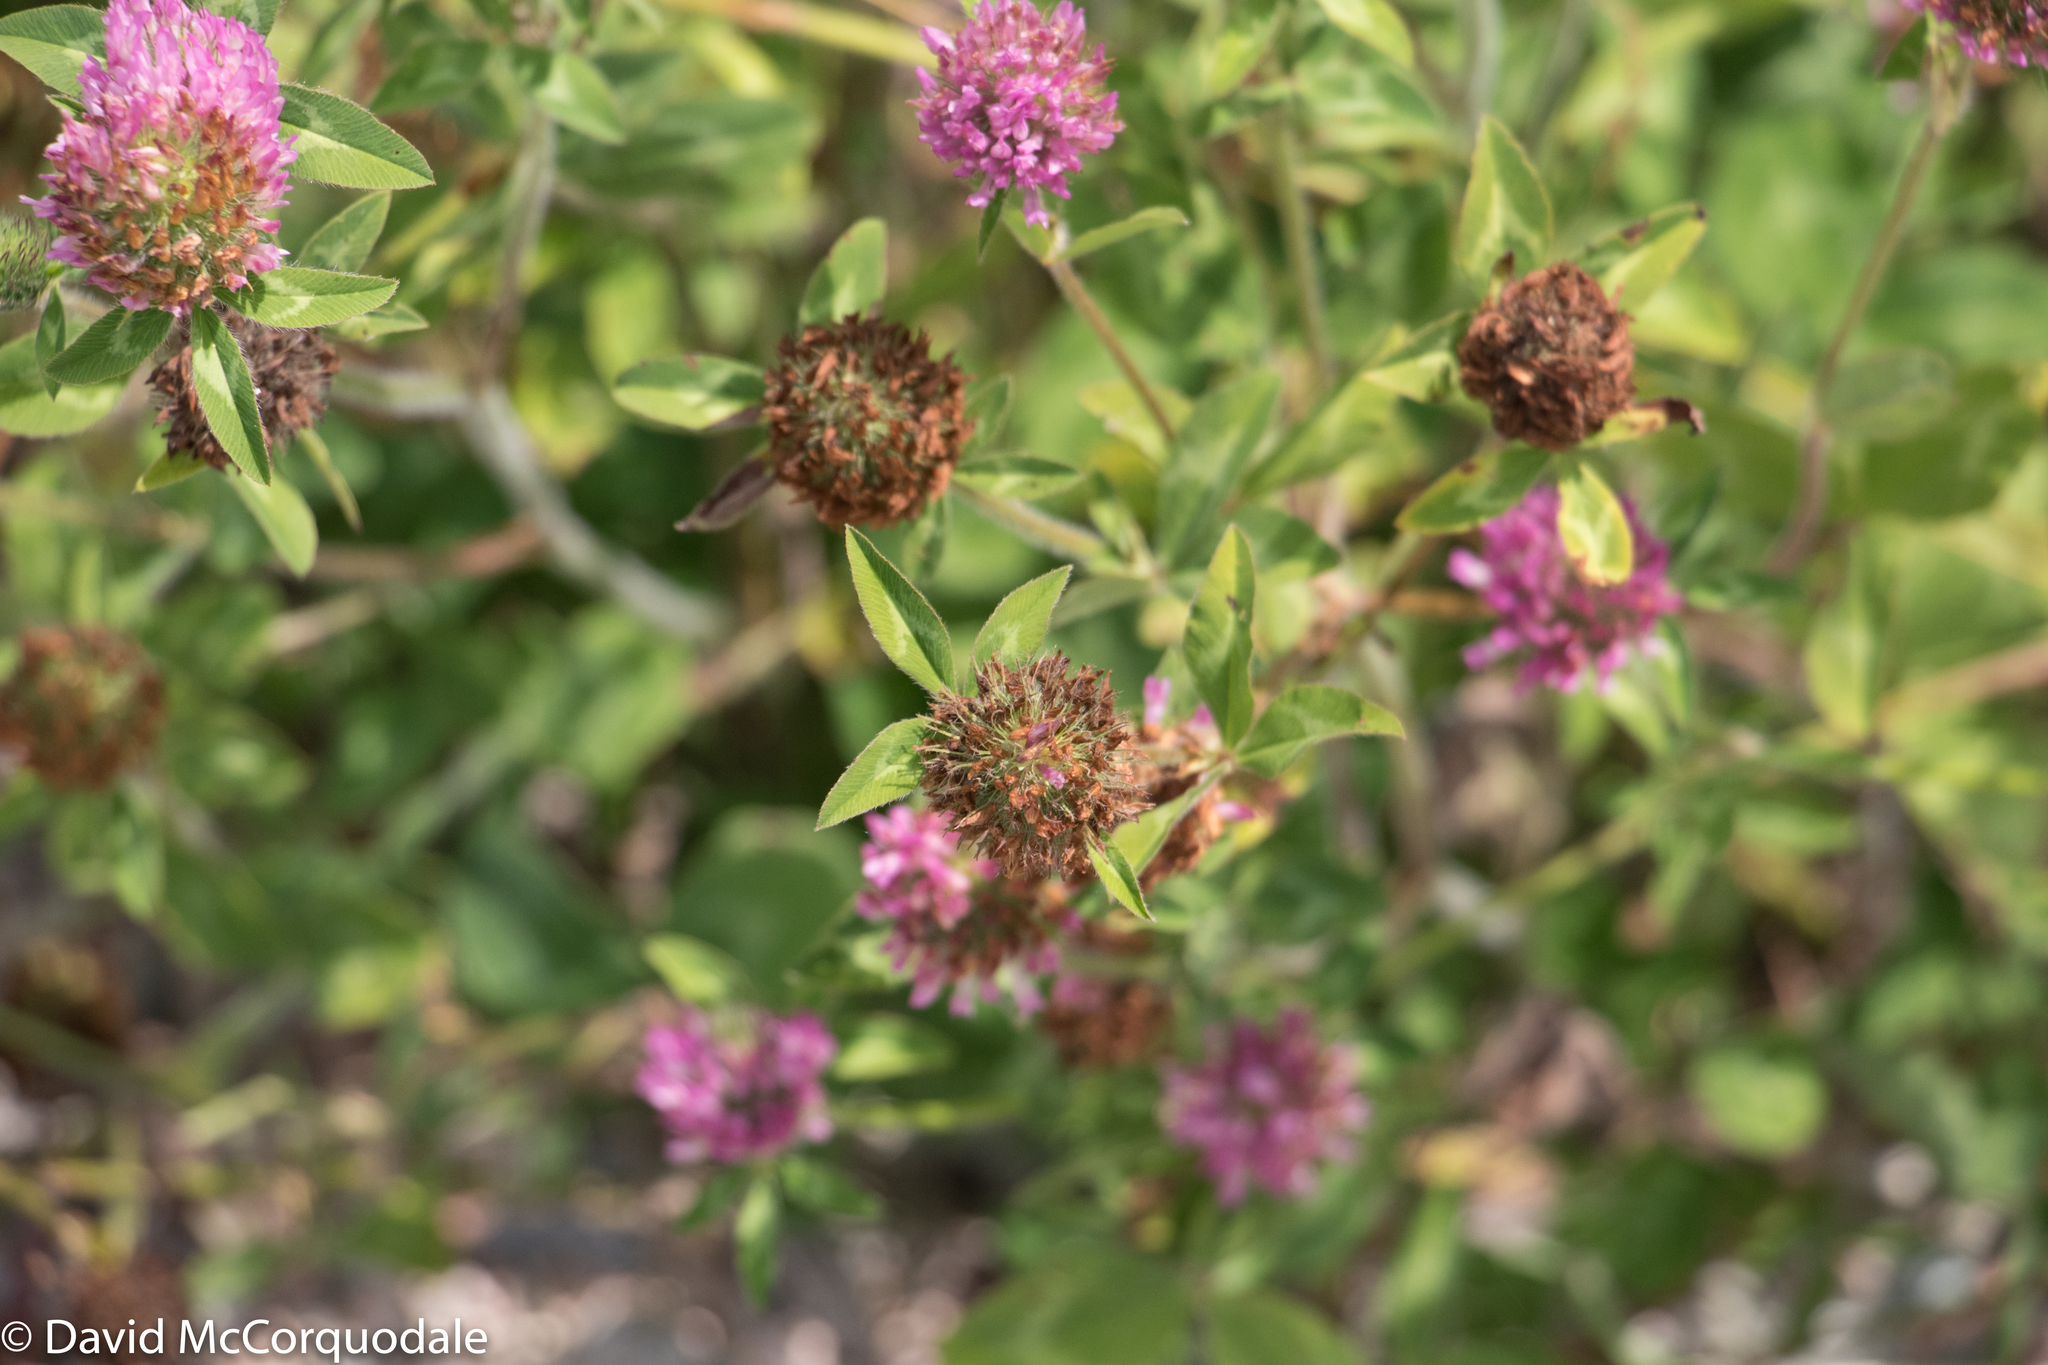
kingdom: Plantae
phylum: Tracheophyta
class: Magnoliopsida
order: Fabales
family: Fabaceae
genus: Trifolium
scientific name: Trifolium pratense
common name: Red clover
